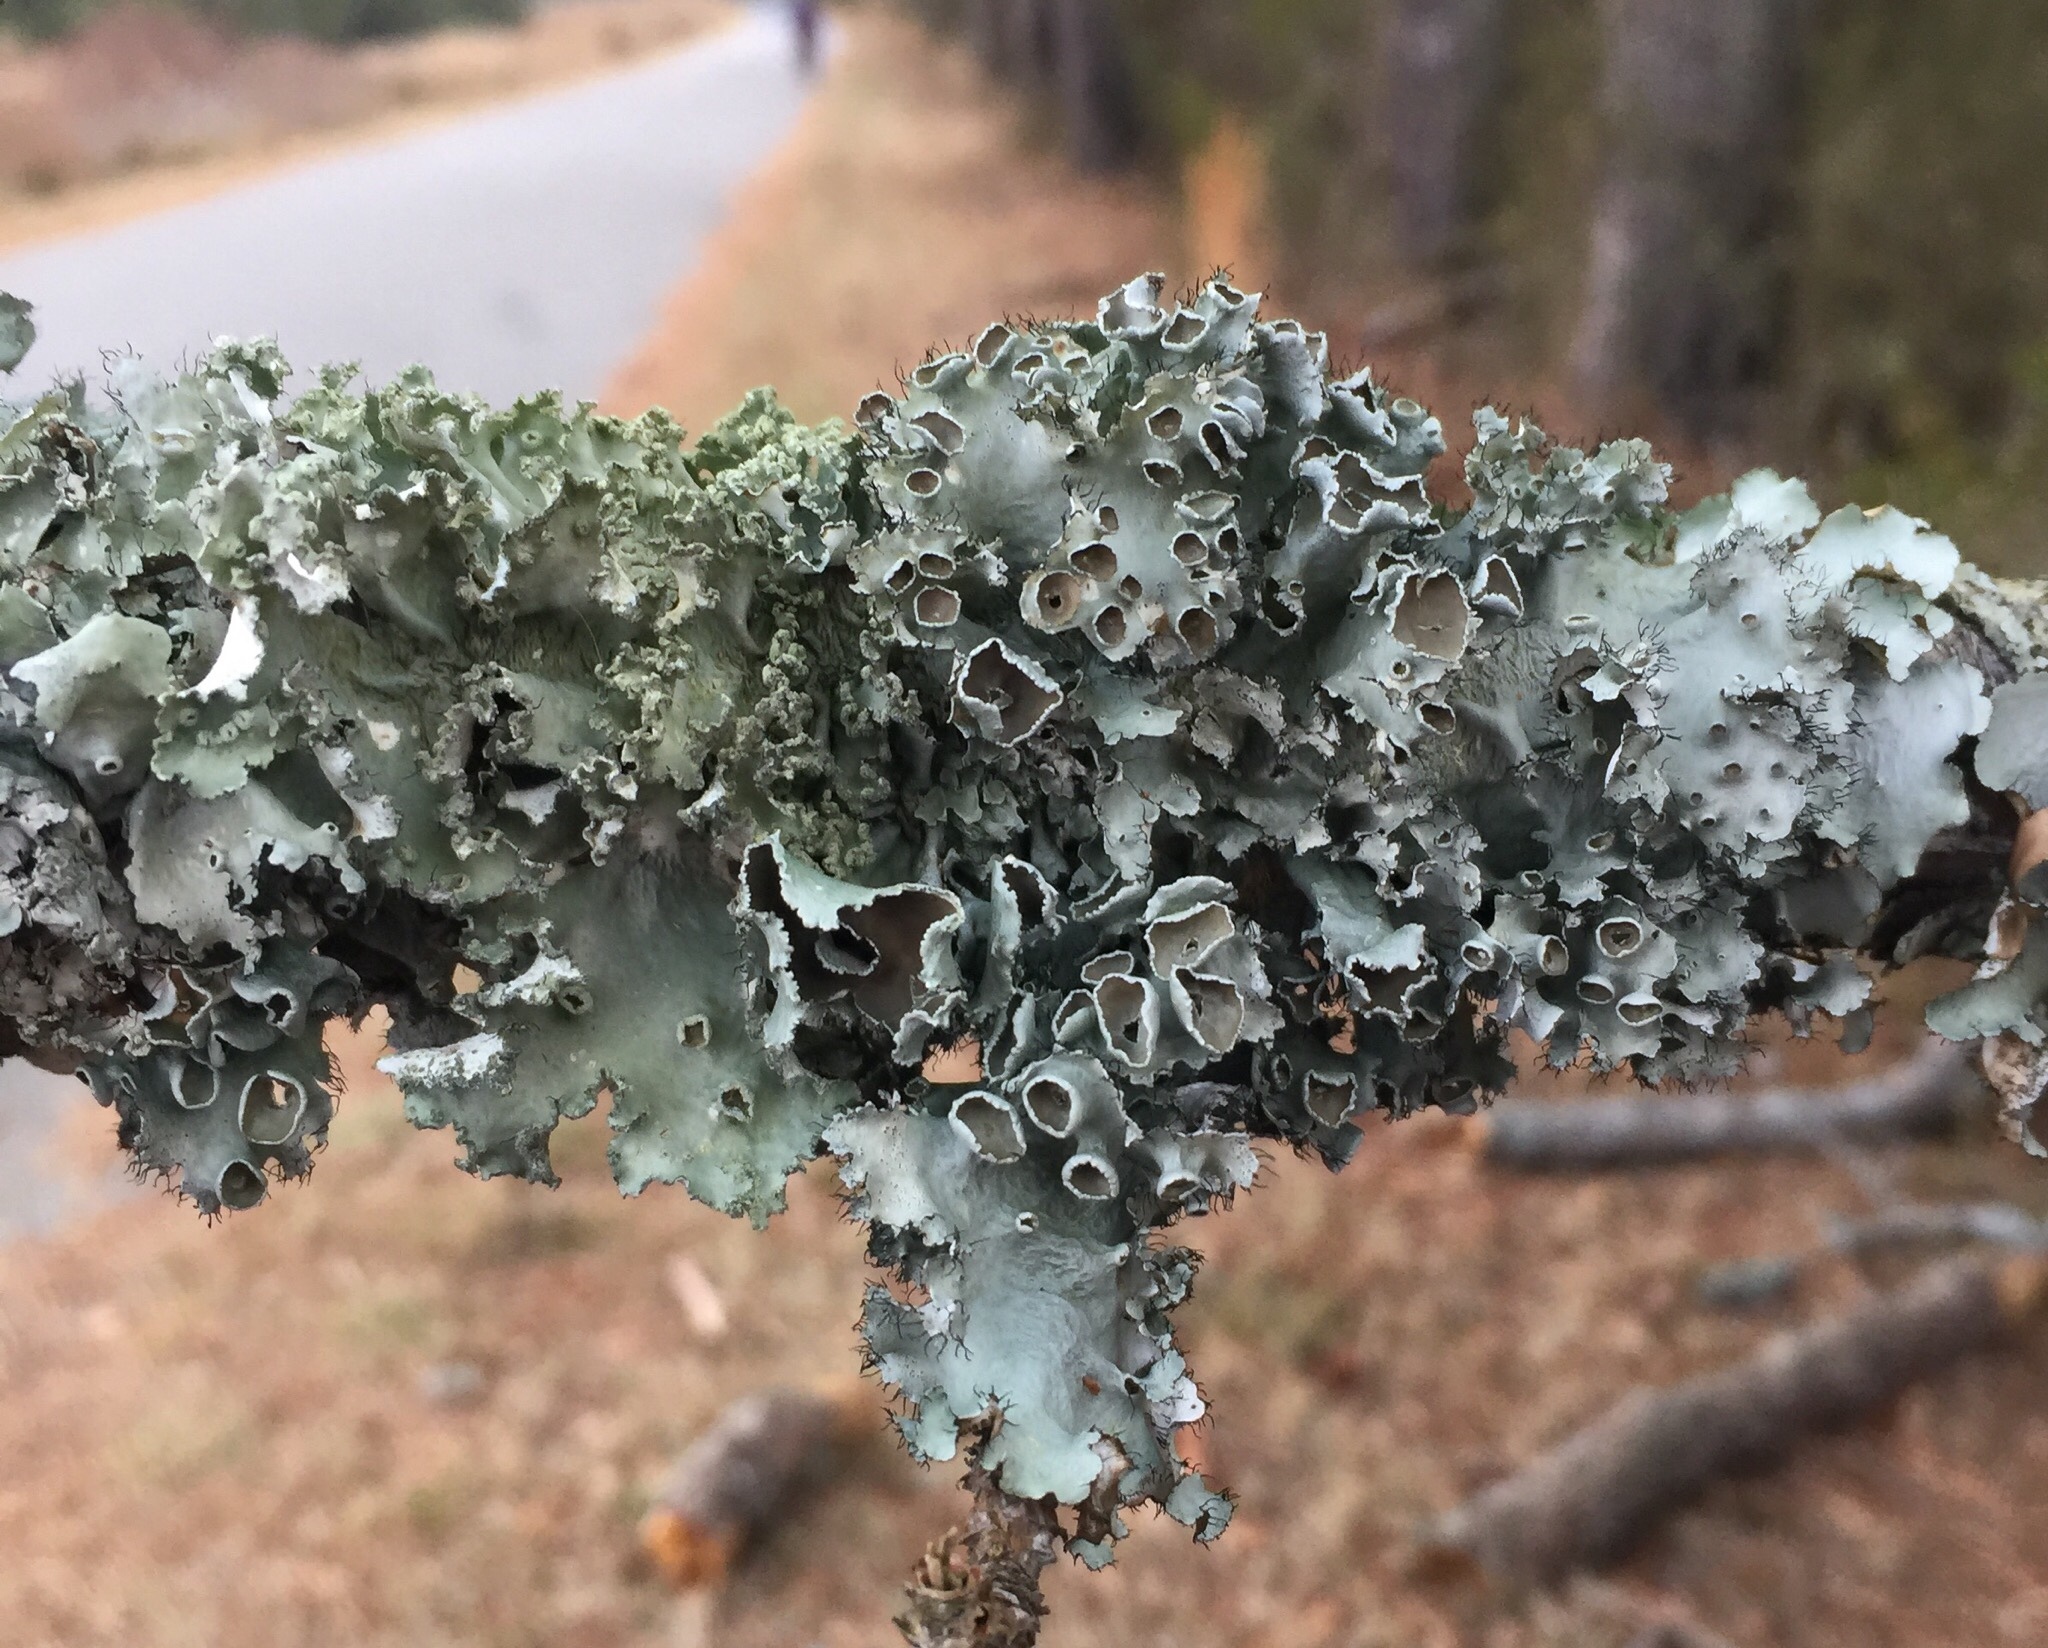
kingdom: Fungi
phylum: Ascomycota
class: Lecanoromycetes
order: Lecanorales
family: Parmeliaceae
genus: Parmotrema
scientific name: Parmotrema perforatum
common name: Perforated ruffle lichen
